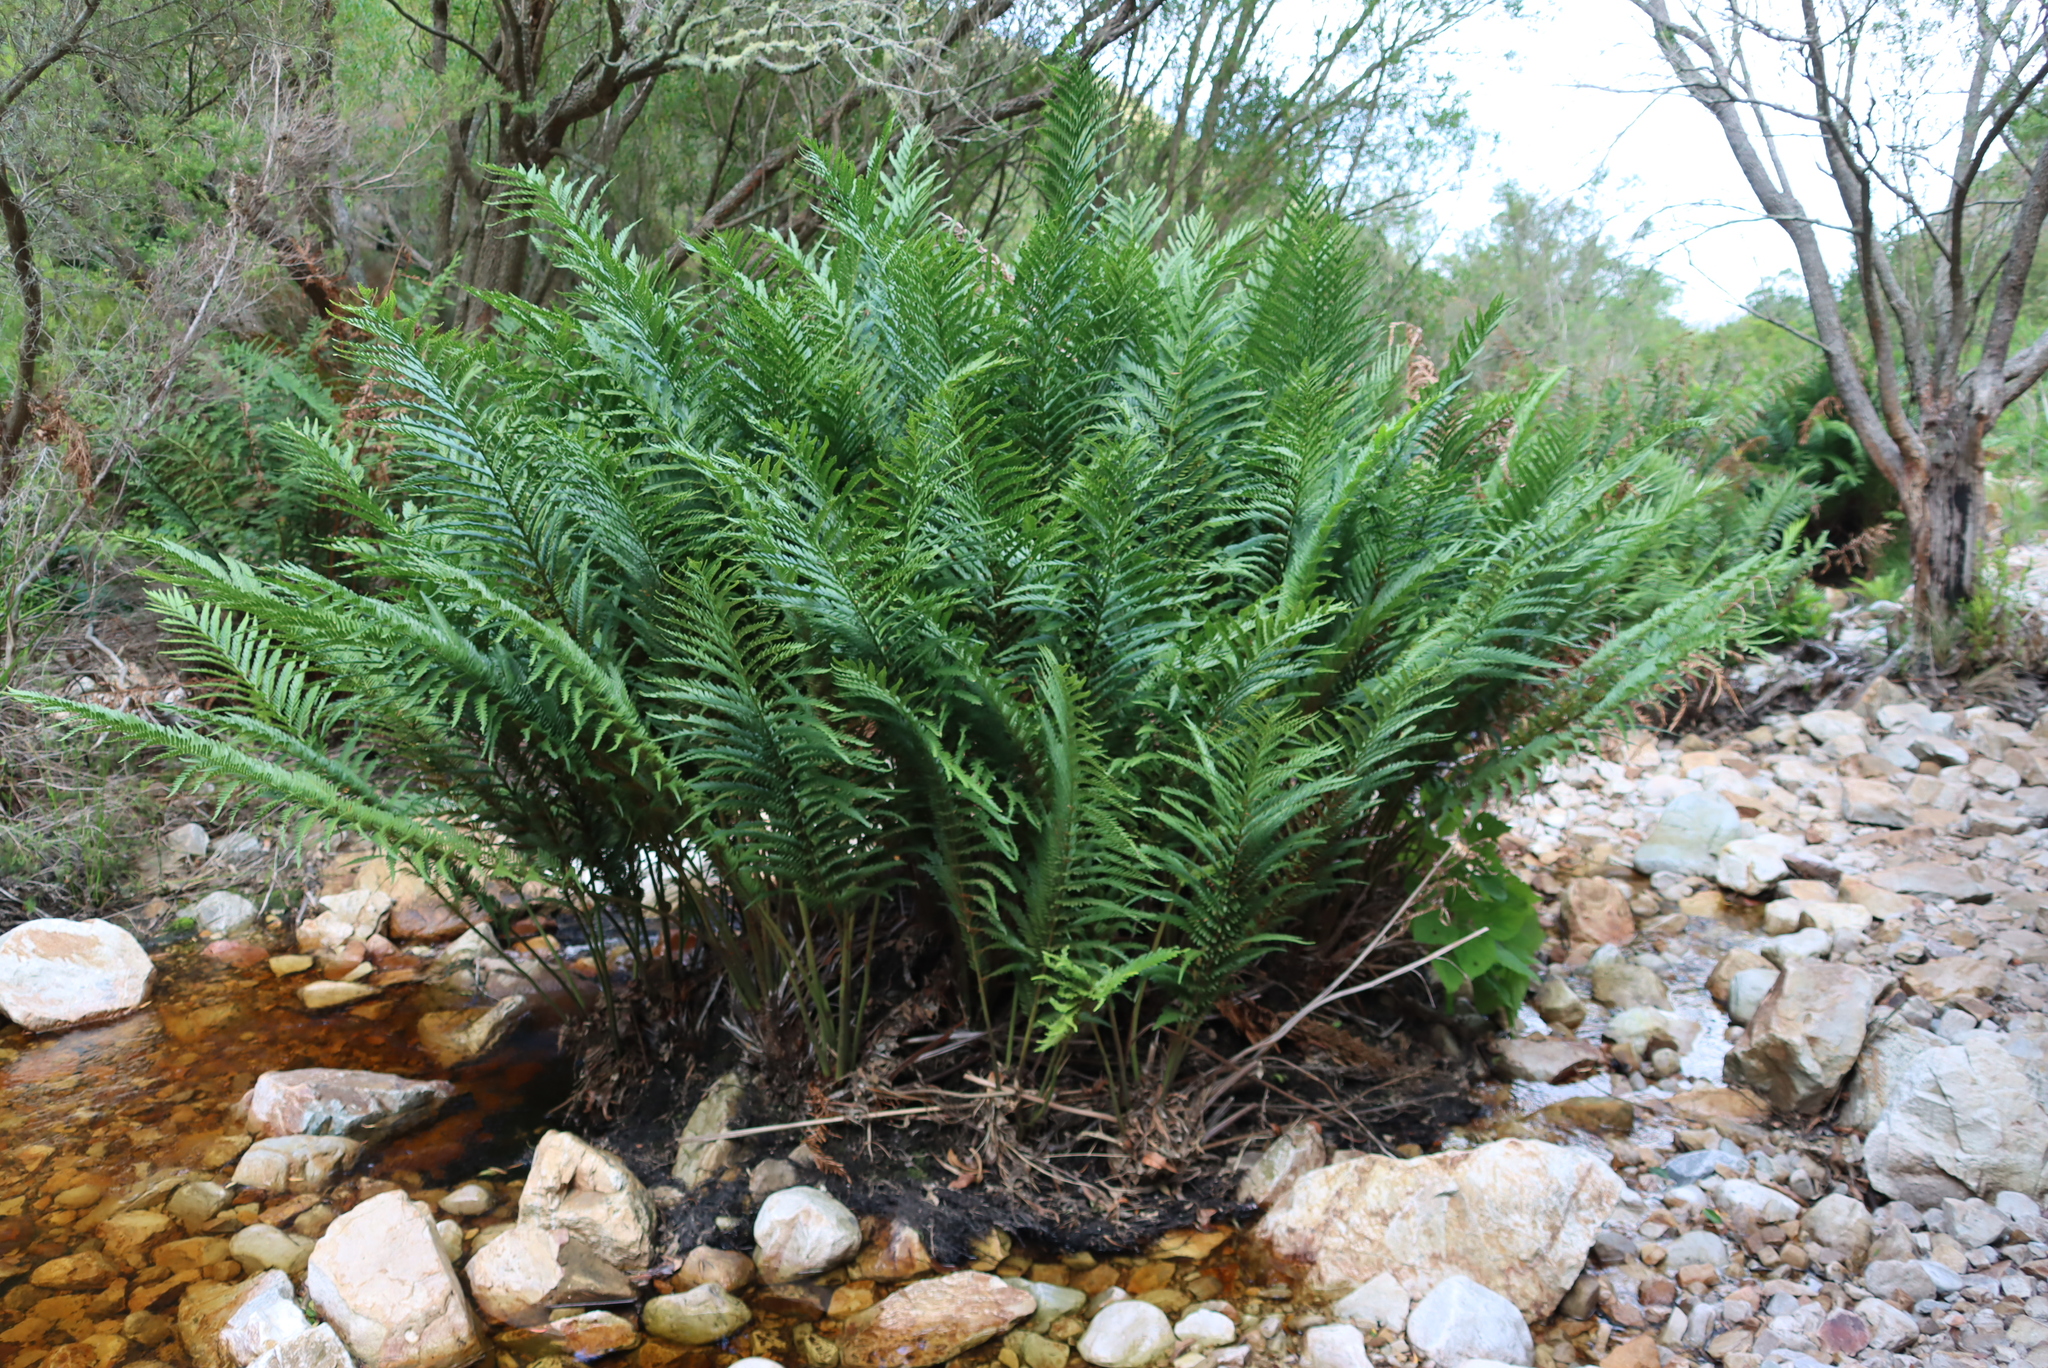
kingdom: Plantae
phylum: Tracheophyta
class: Polypodiopsida
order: Osmundales
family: Osmundaceae
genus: Todea
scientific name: Todea barbara
